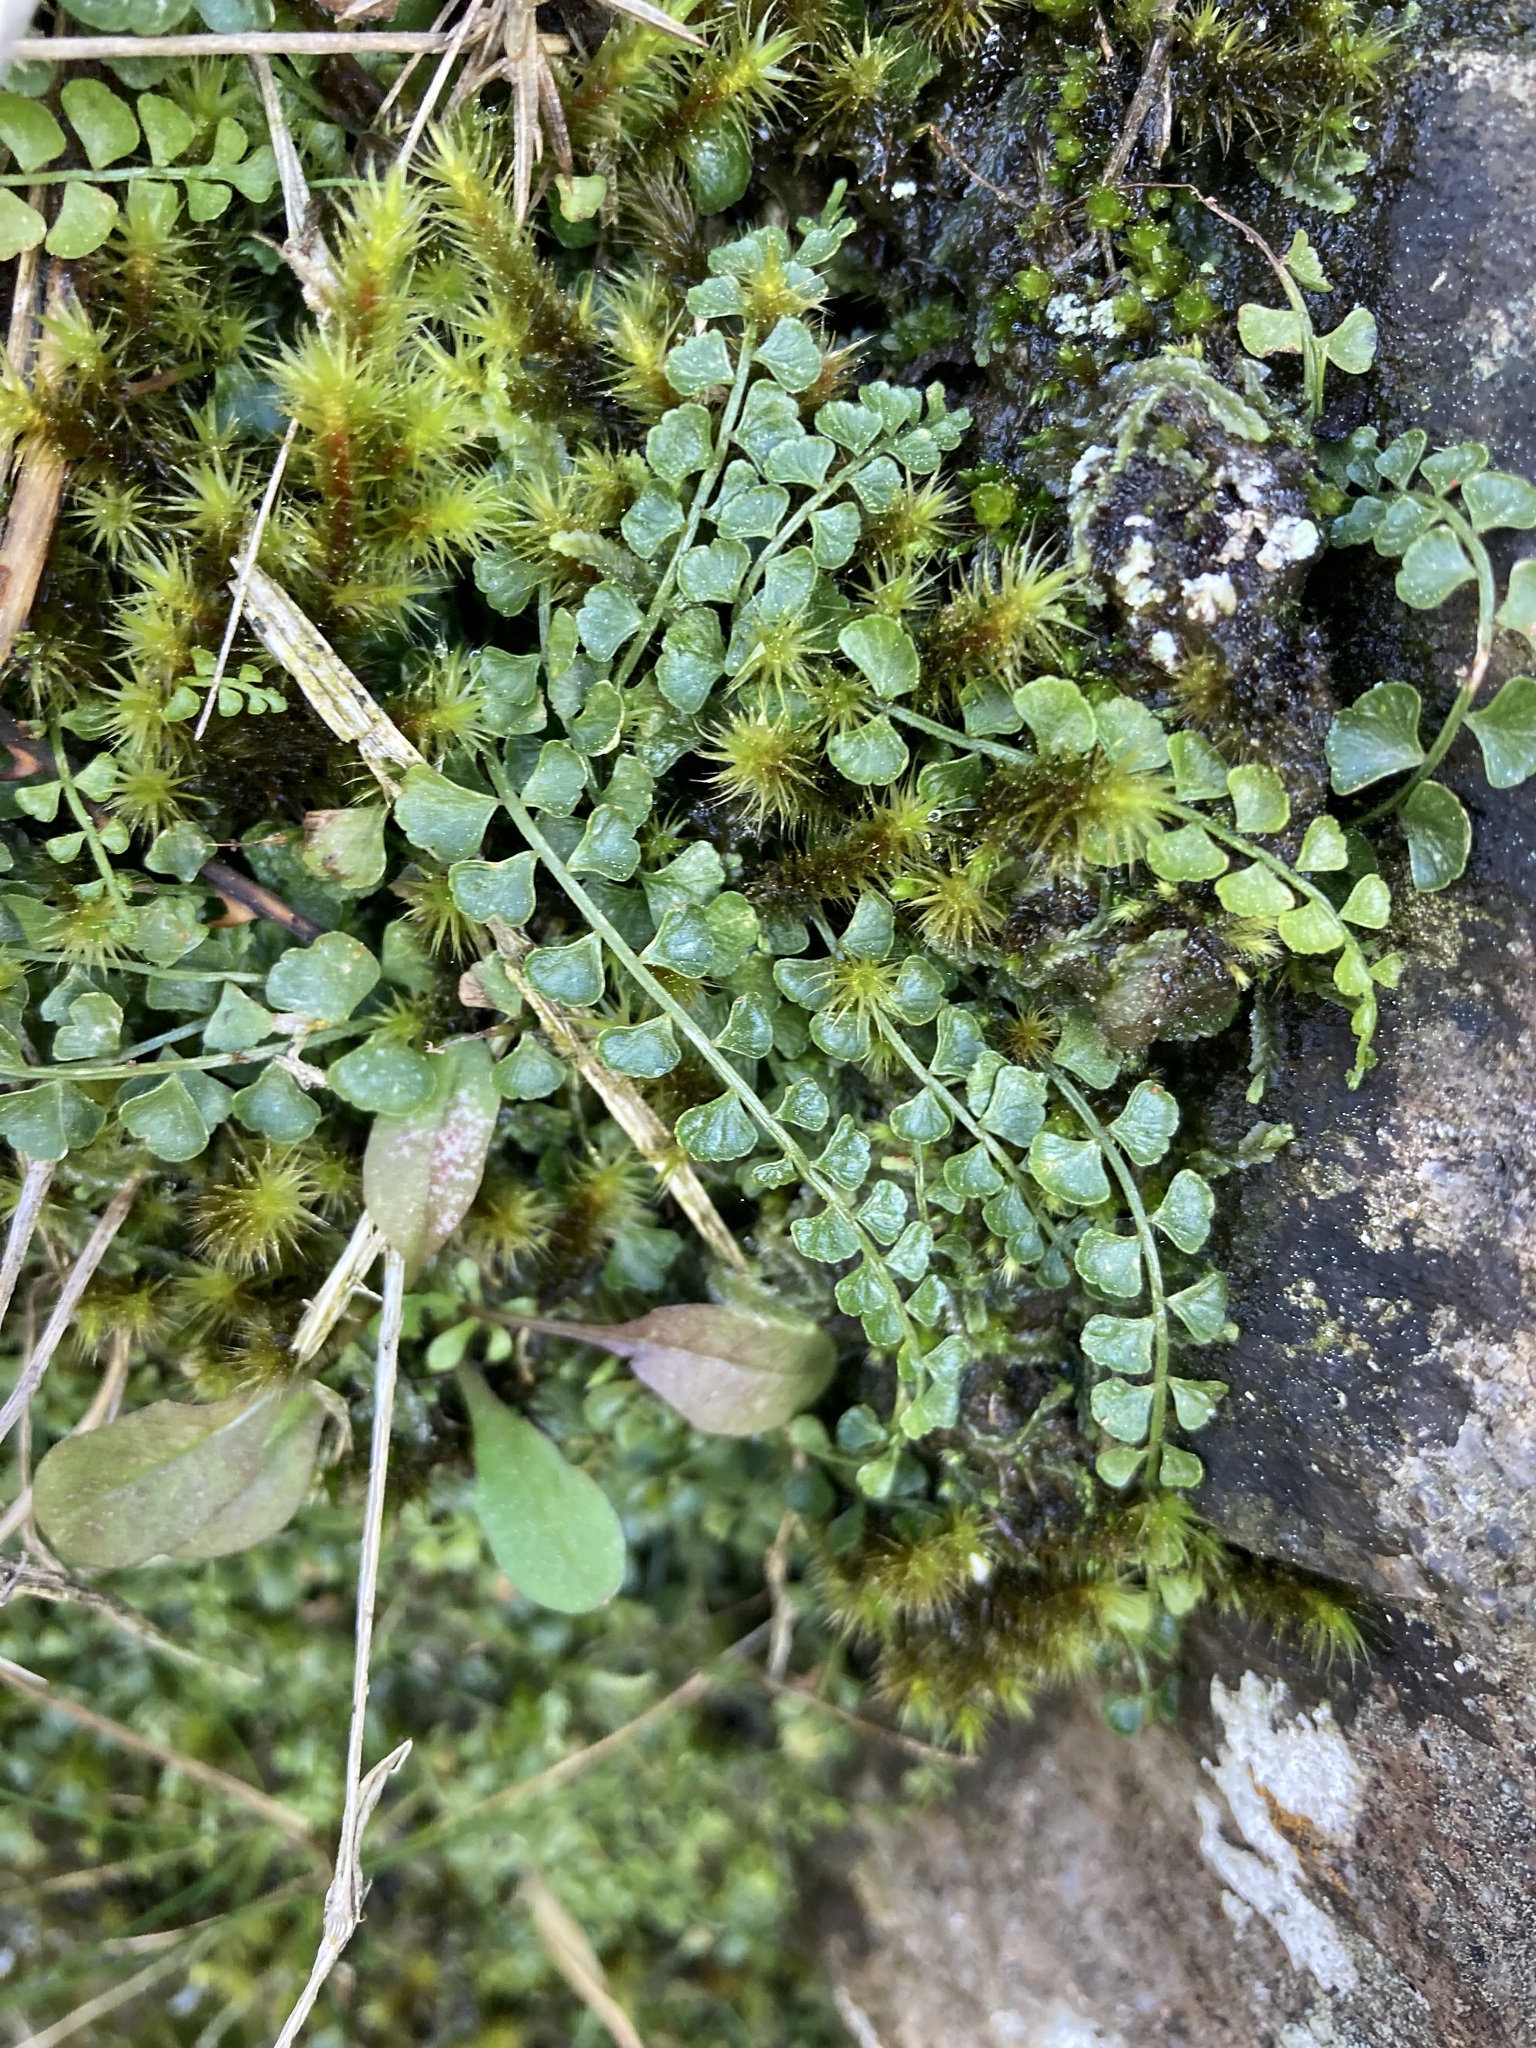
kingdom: Plantae
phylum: Tracheophyta
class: Polypodiopsida
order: Polypodiales
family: Aspleniaceae
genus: Asplenium
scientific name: Asplenium flabellifolium
